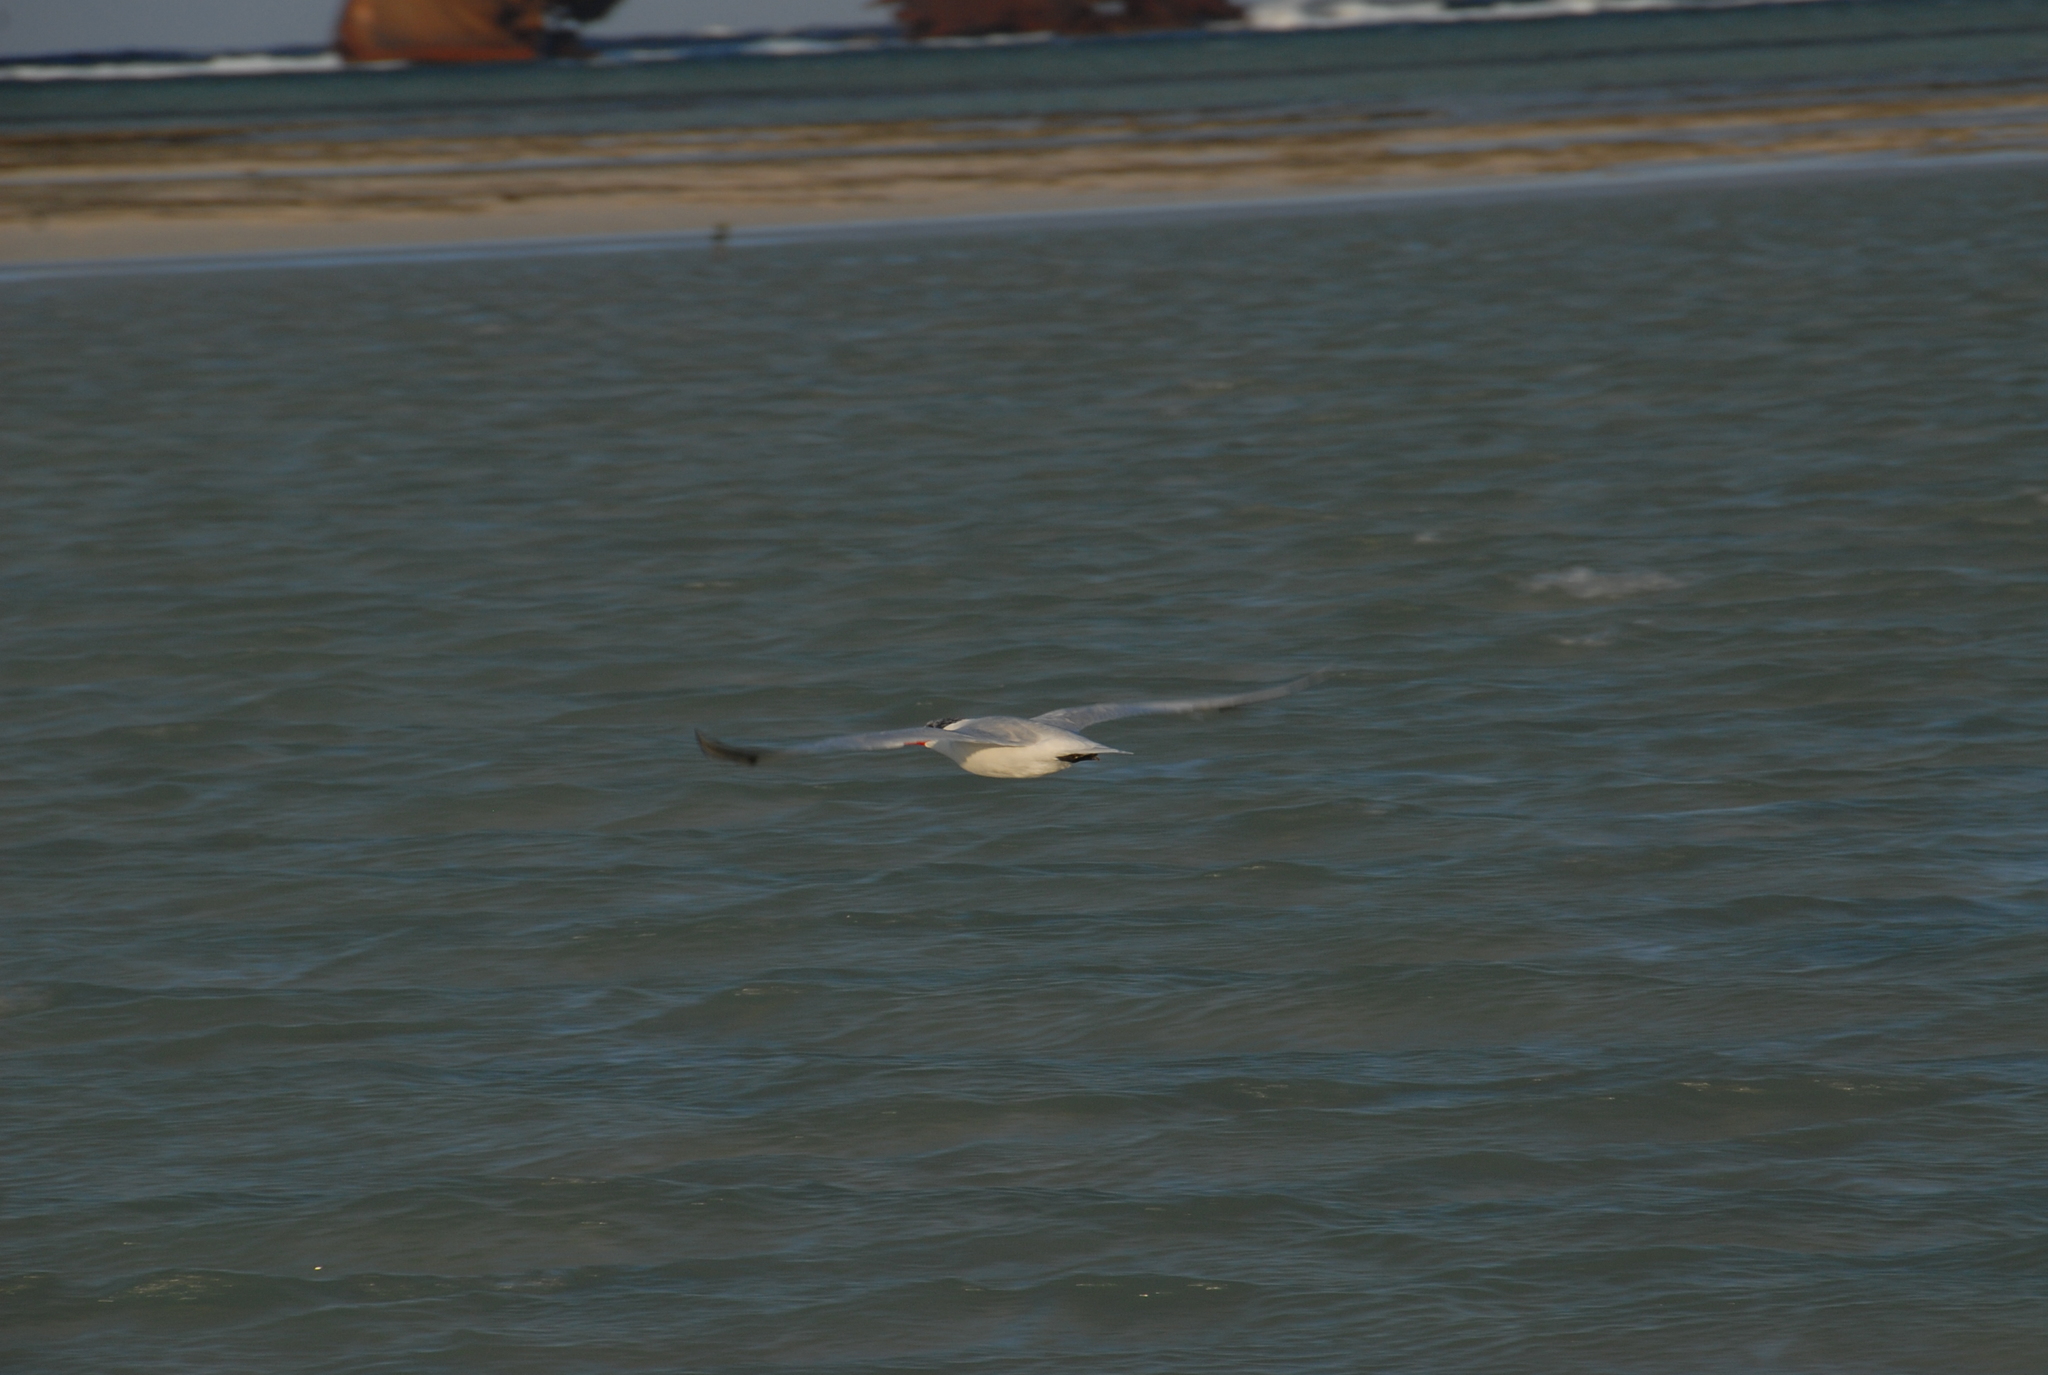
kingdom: Animalia
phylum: Chordata
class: Aves
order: Charadriiformes
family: Laridae
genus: Hydroprogne
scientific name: Hydroprogne caspia
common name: Caspian tern
